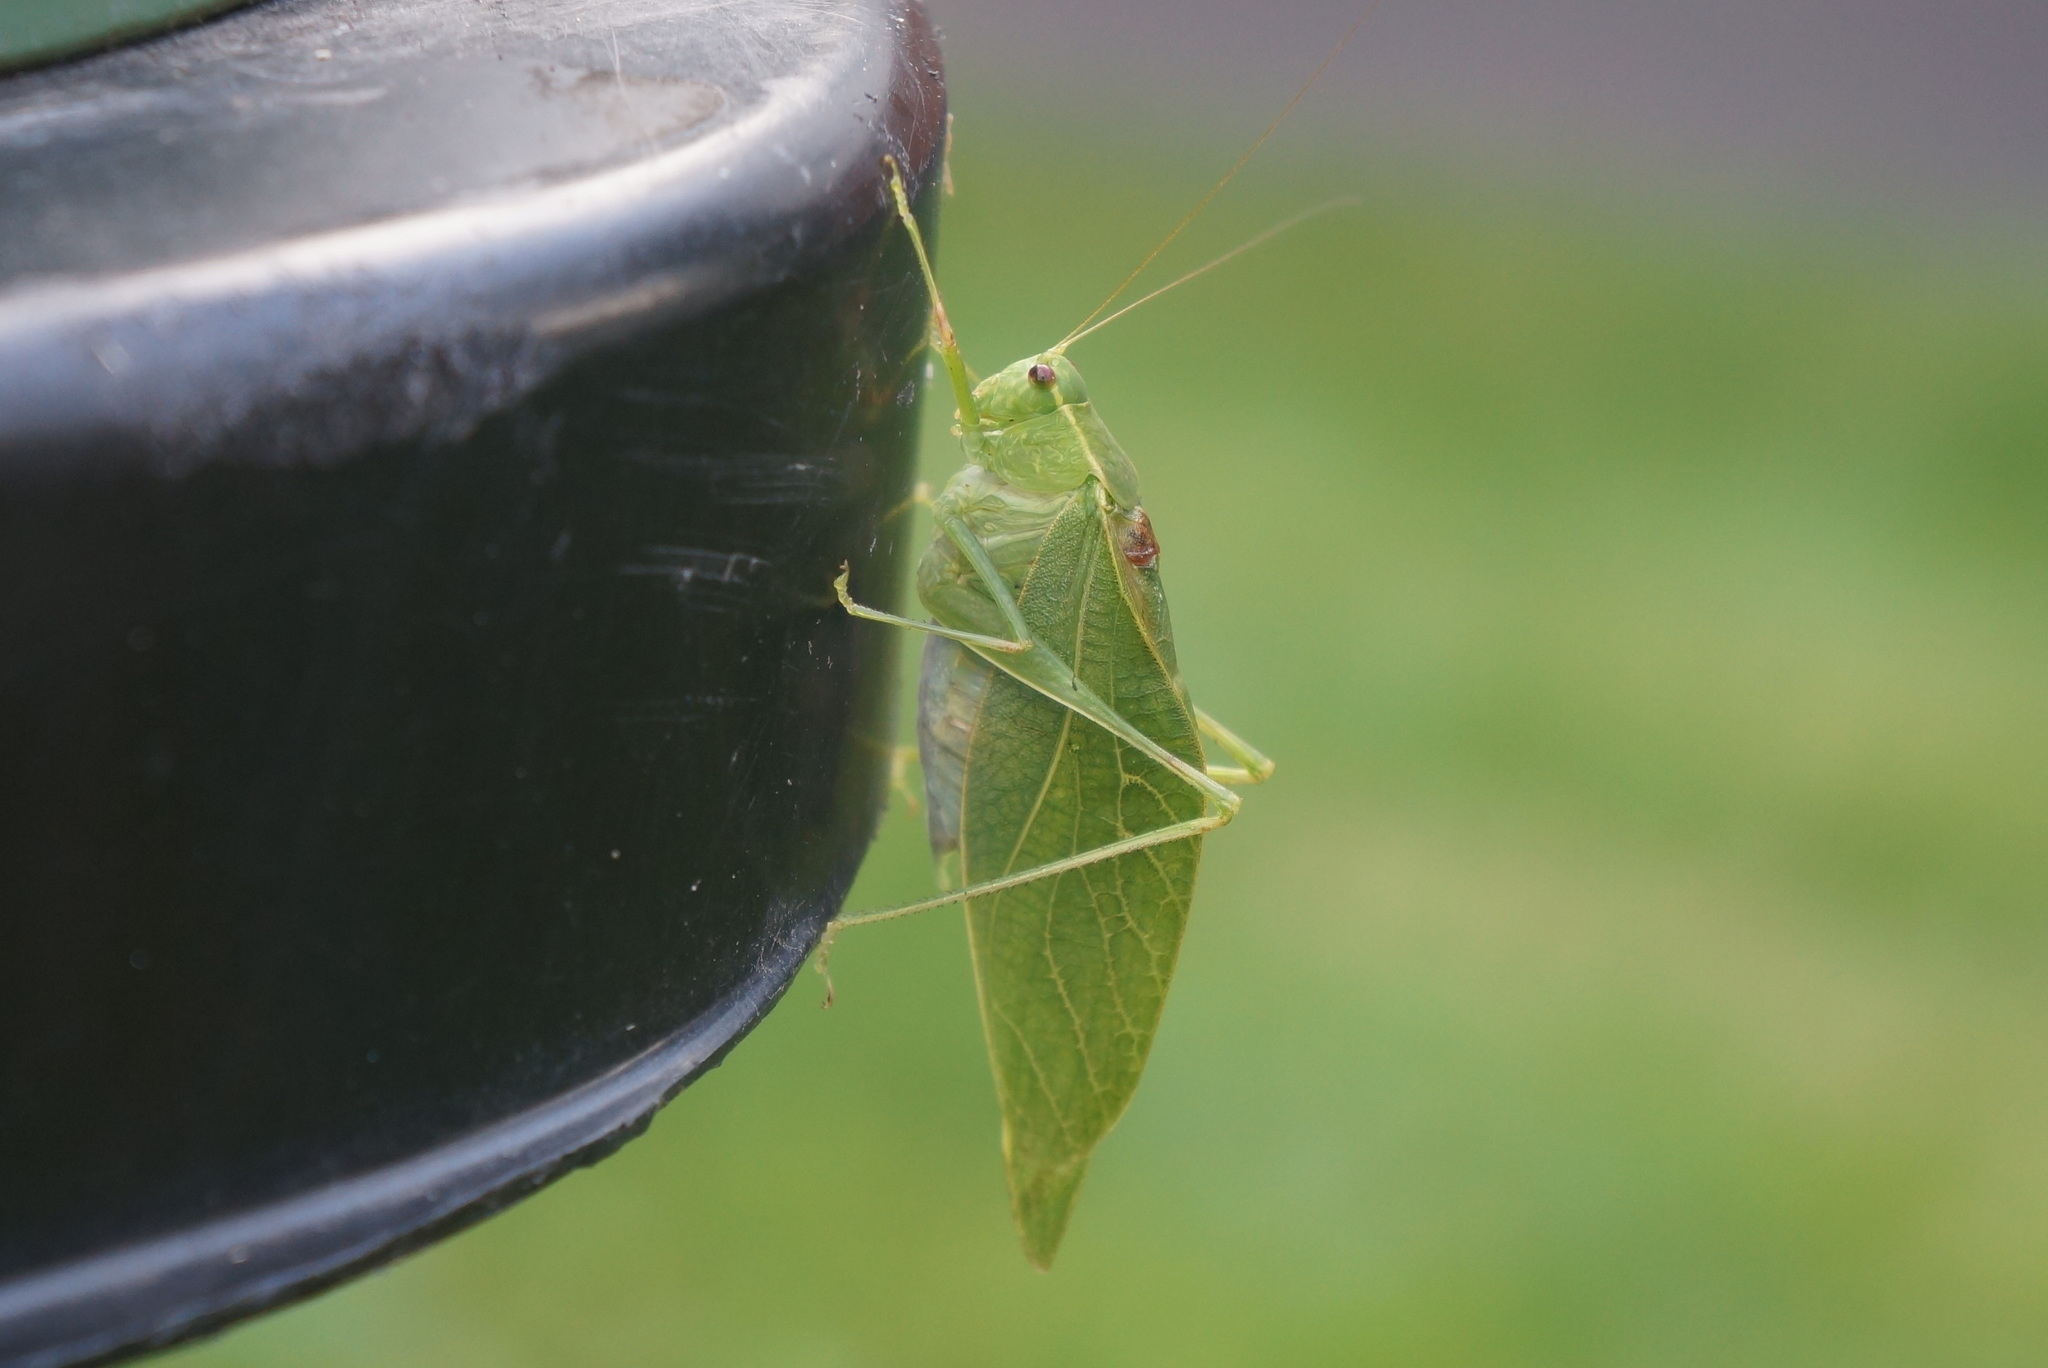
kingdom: Animalia
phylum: Arthropoda
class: Insecta
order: Orthoptera
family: Tettigoniidae
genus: Microcentrum
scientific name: Microcentrum retinerve
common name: Angular-winged katydid
